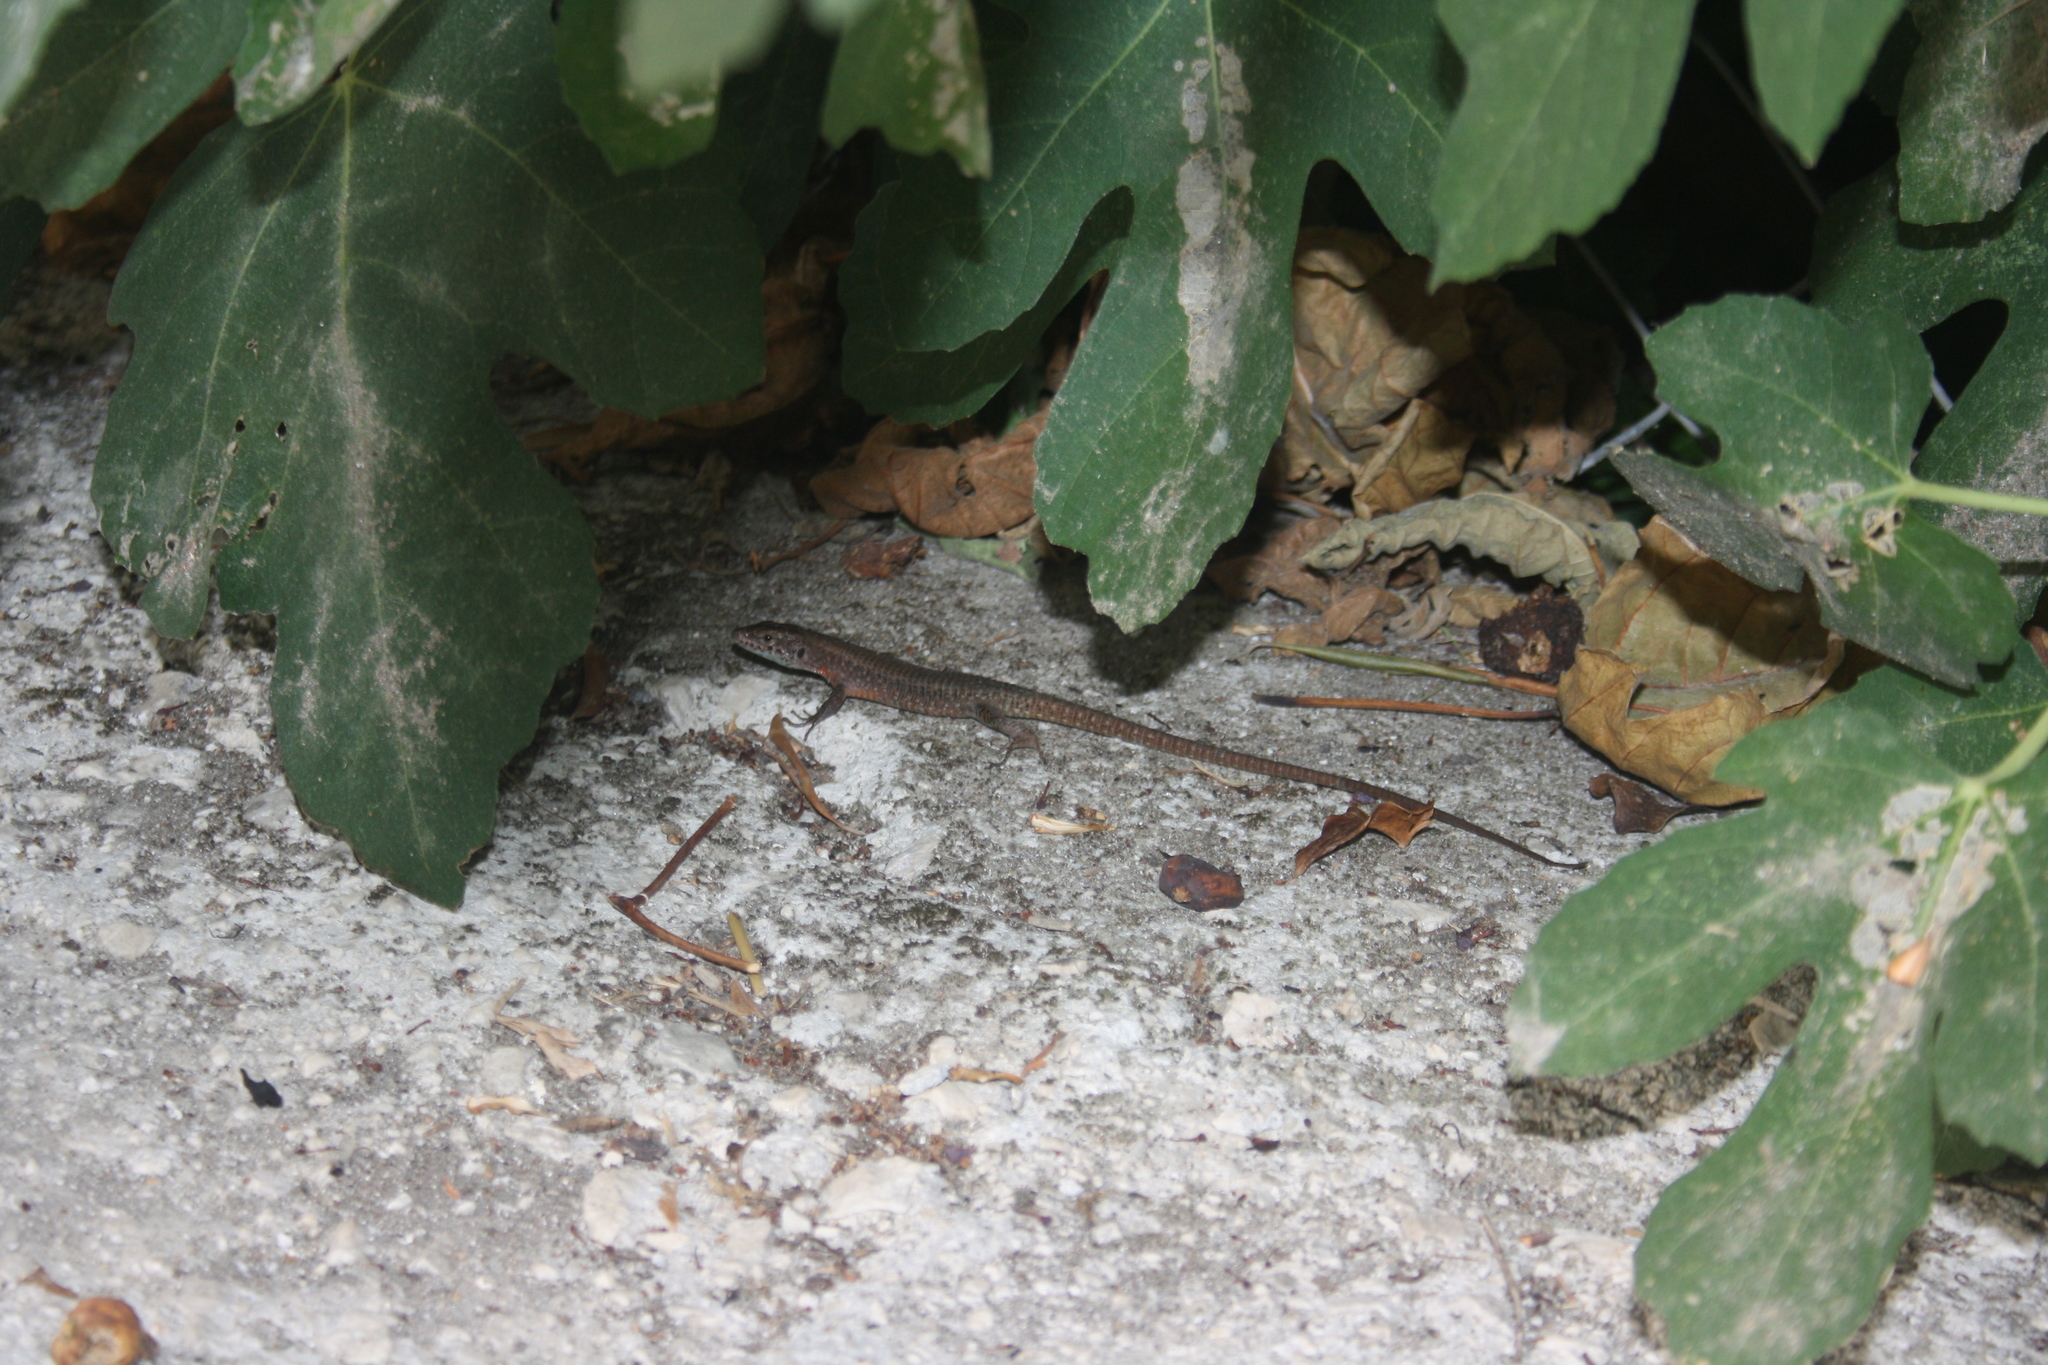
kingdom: Animalia
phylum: Chordata
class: Squamata
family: Lacertidae
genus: Algyroides
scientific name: Algyroides nigropunctatus
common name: Blue-throated keeled lizard
